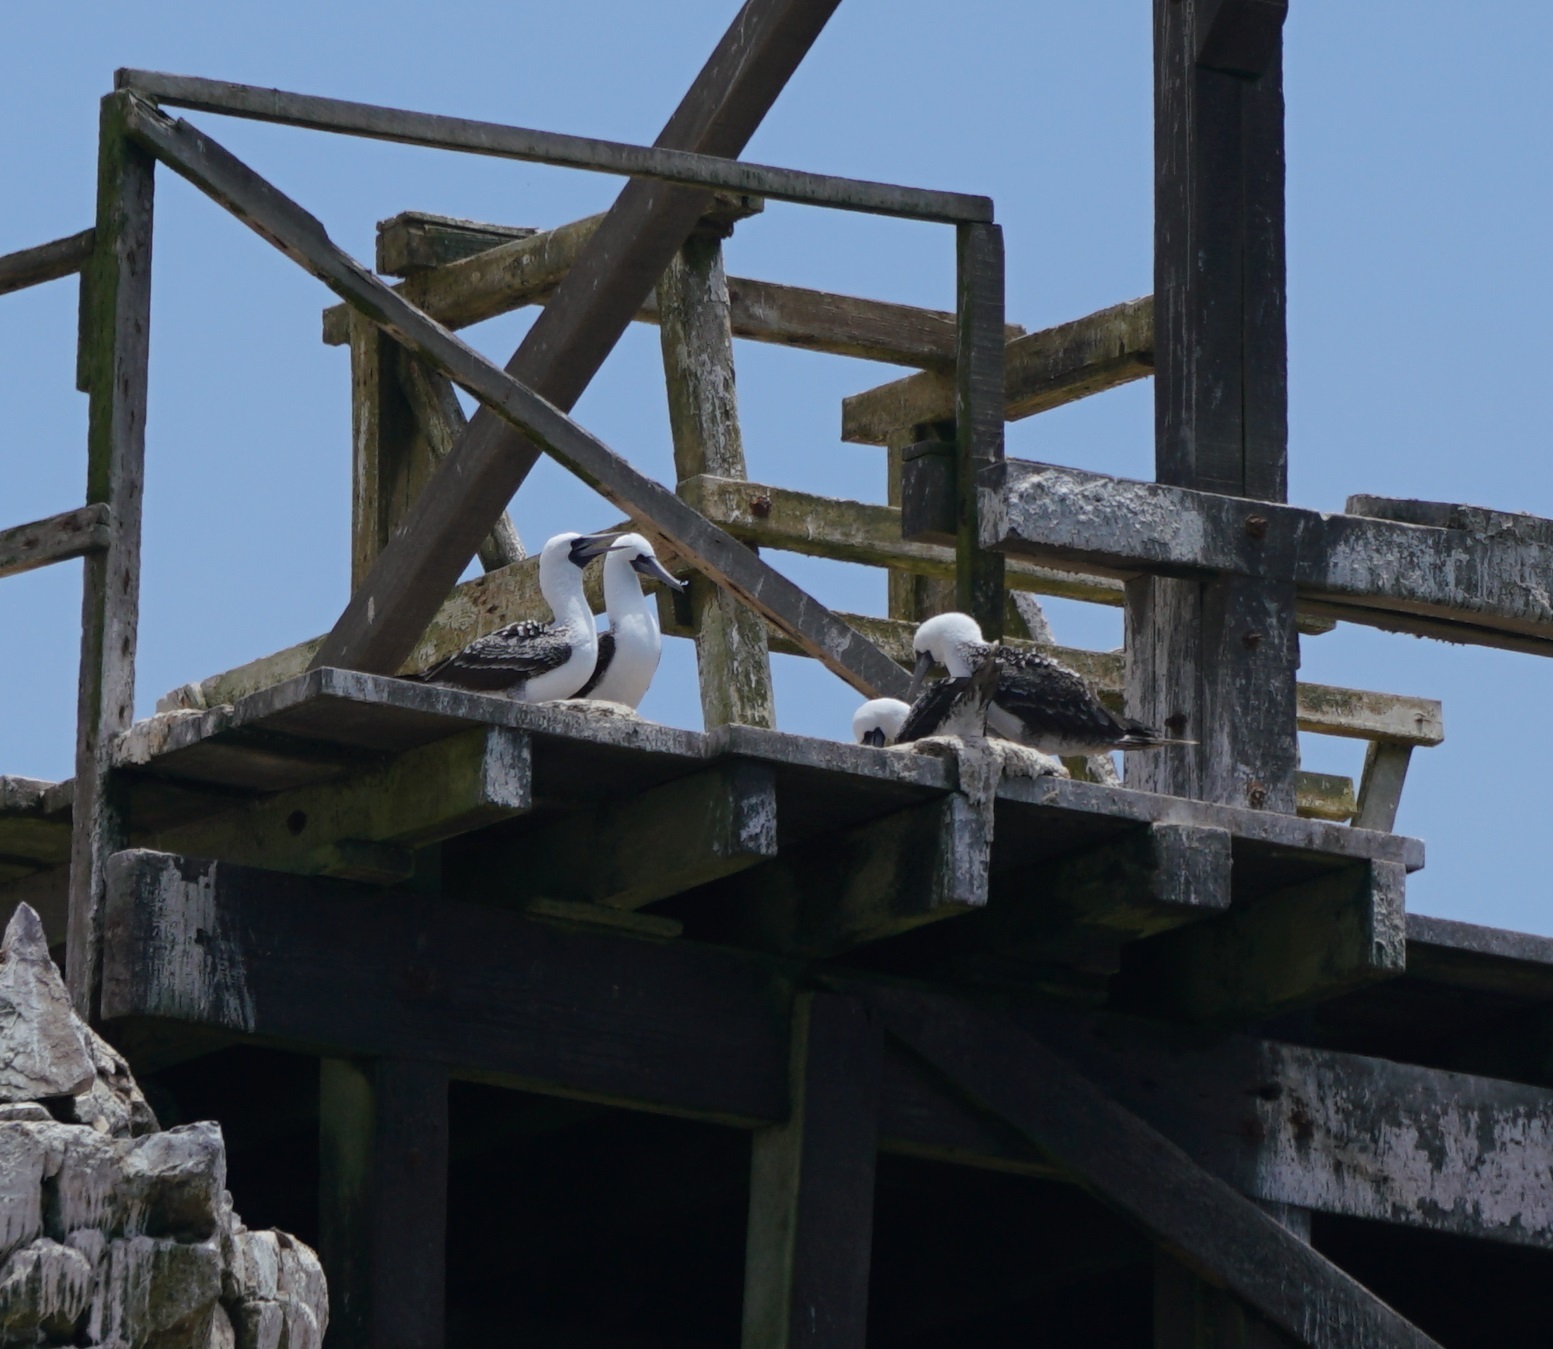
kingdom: Animalia
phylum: Chordata
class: Aves
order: Suliformes
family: Sulidae
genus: Sula
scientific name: Sula variegata
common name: Peruvian booby
